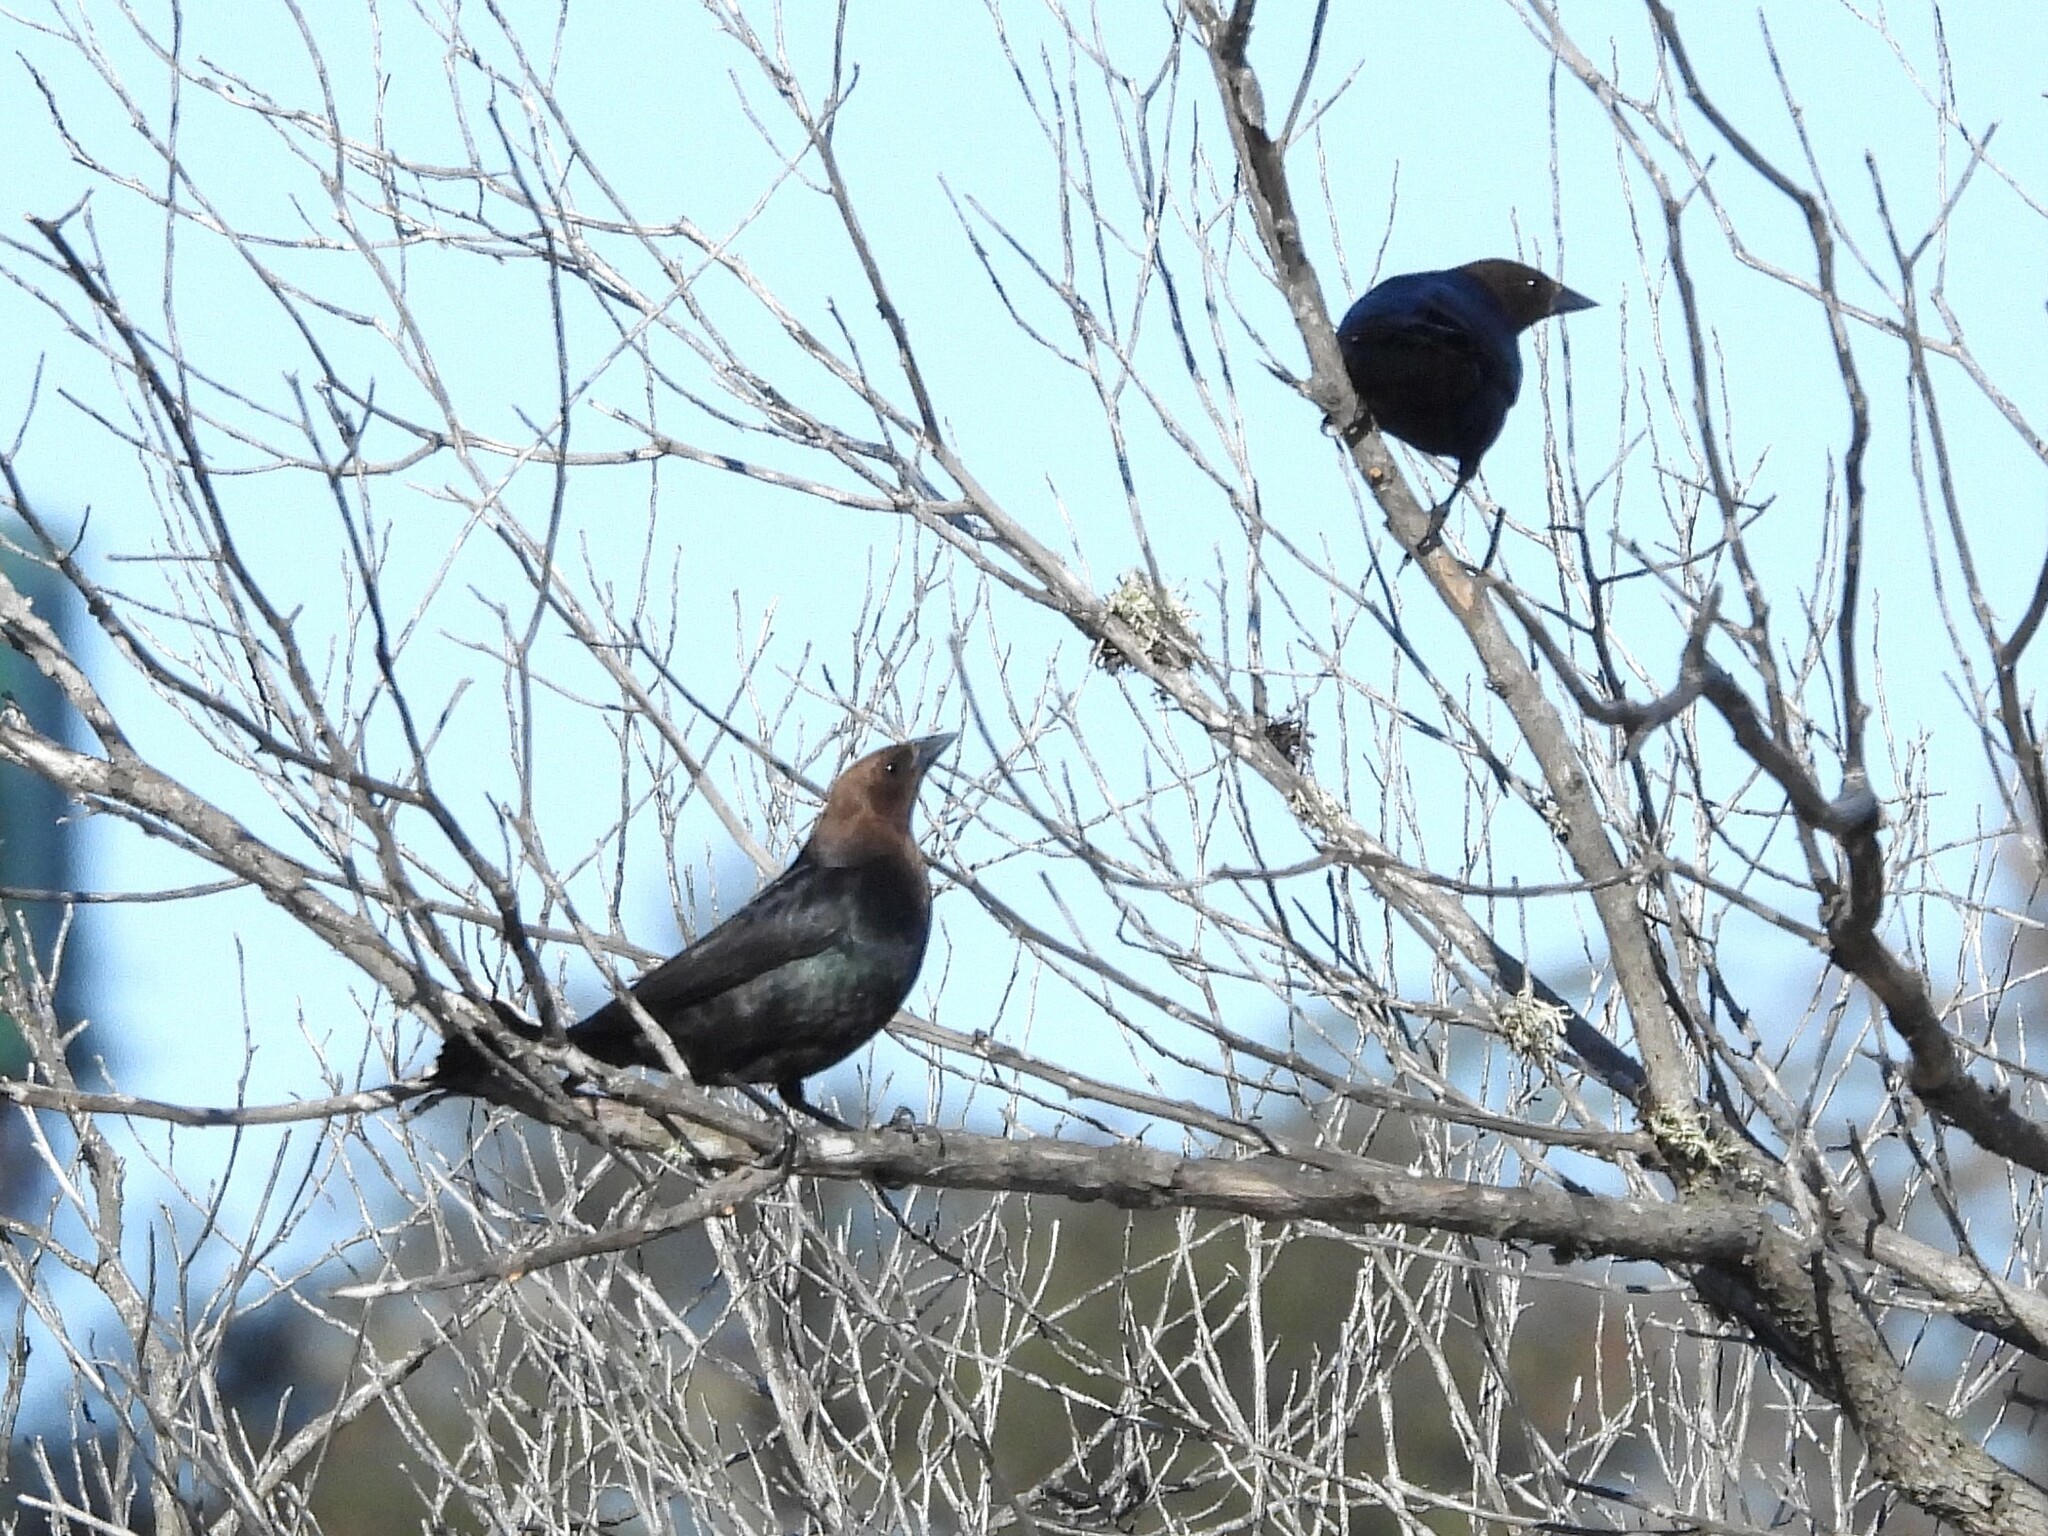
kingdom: Animalia
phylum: Chordata
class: Aves
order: Passeriformes
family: Icteridae
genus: Molothrus
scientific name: Molothrus ater
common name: Brown-headed cowbird
